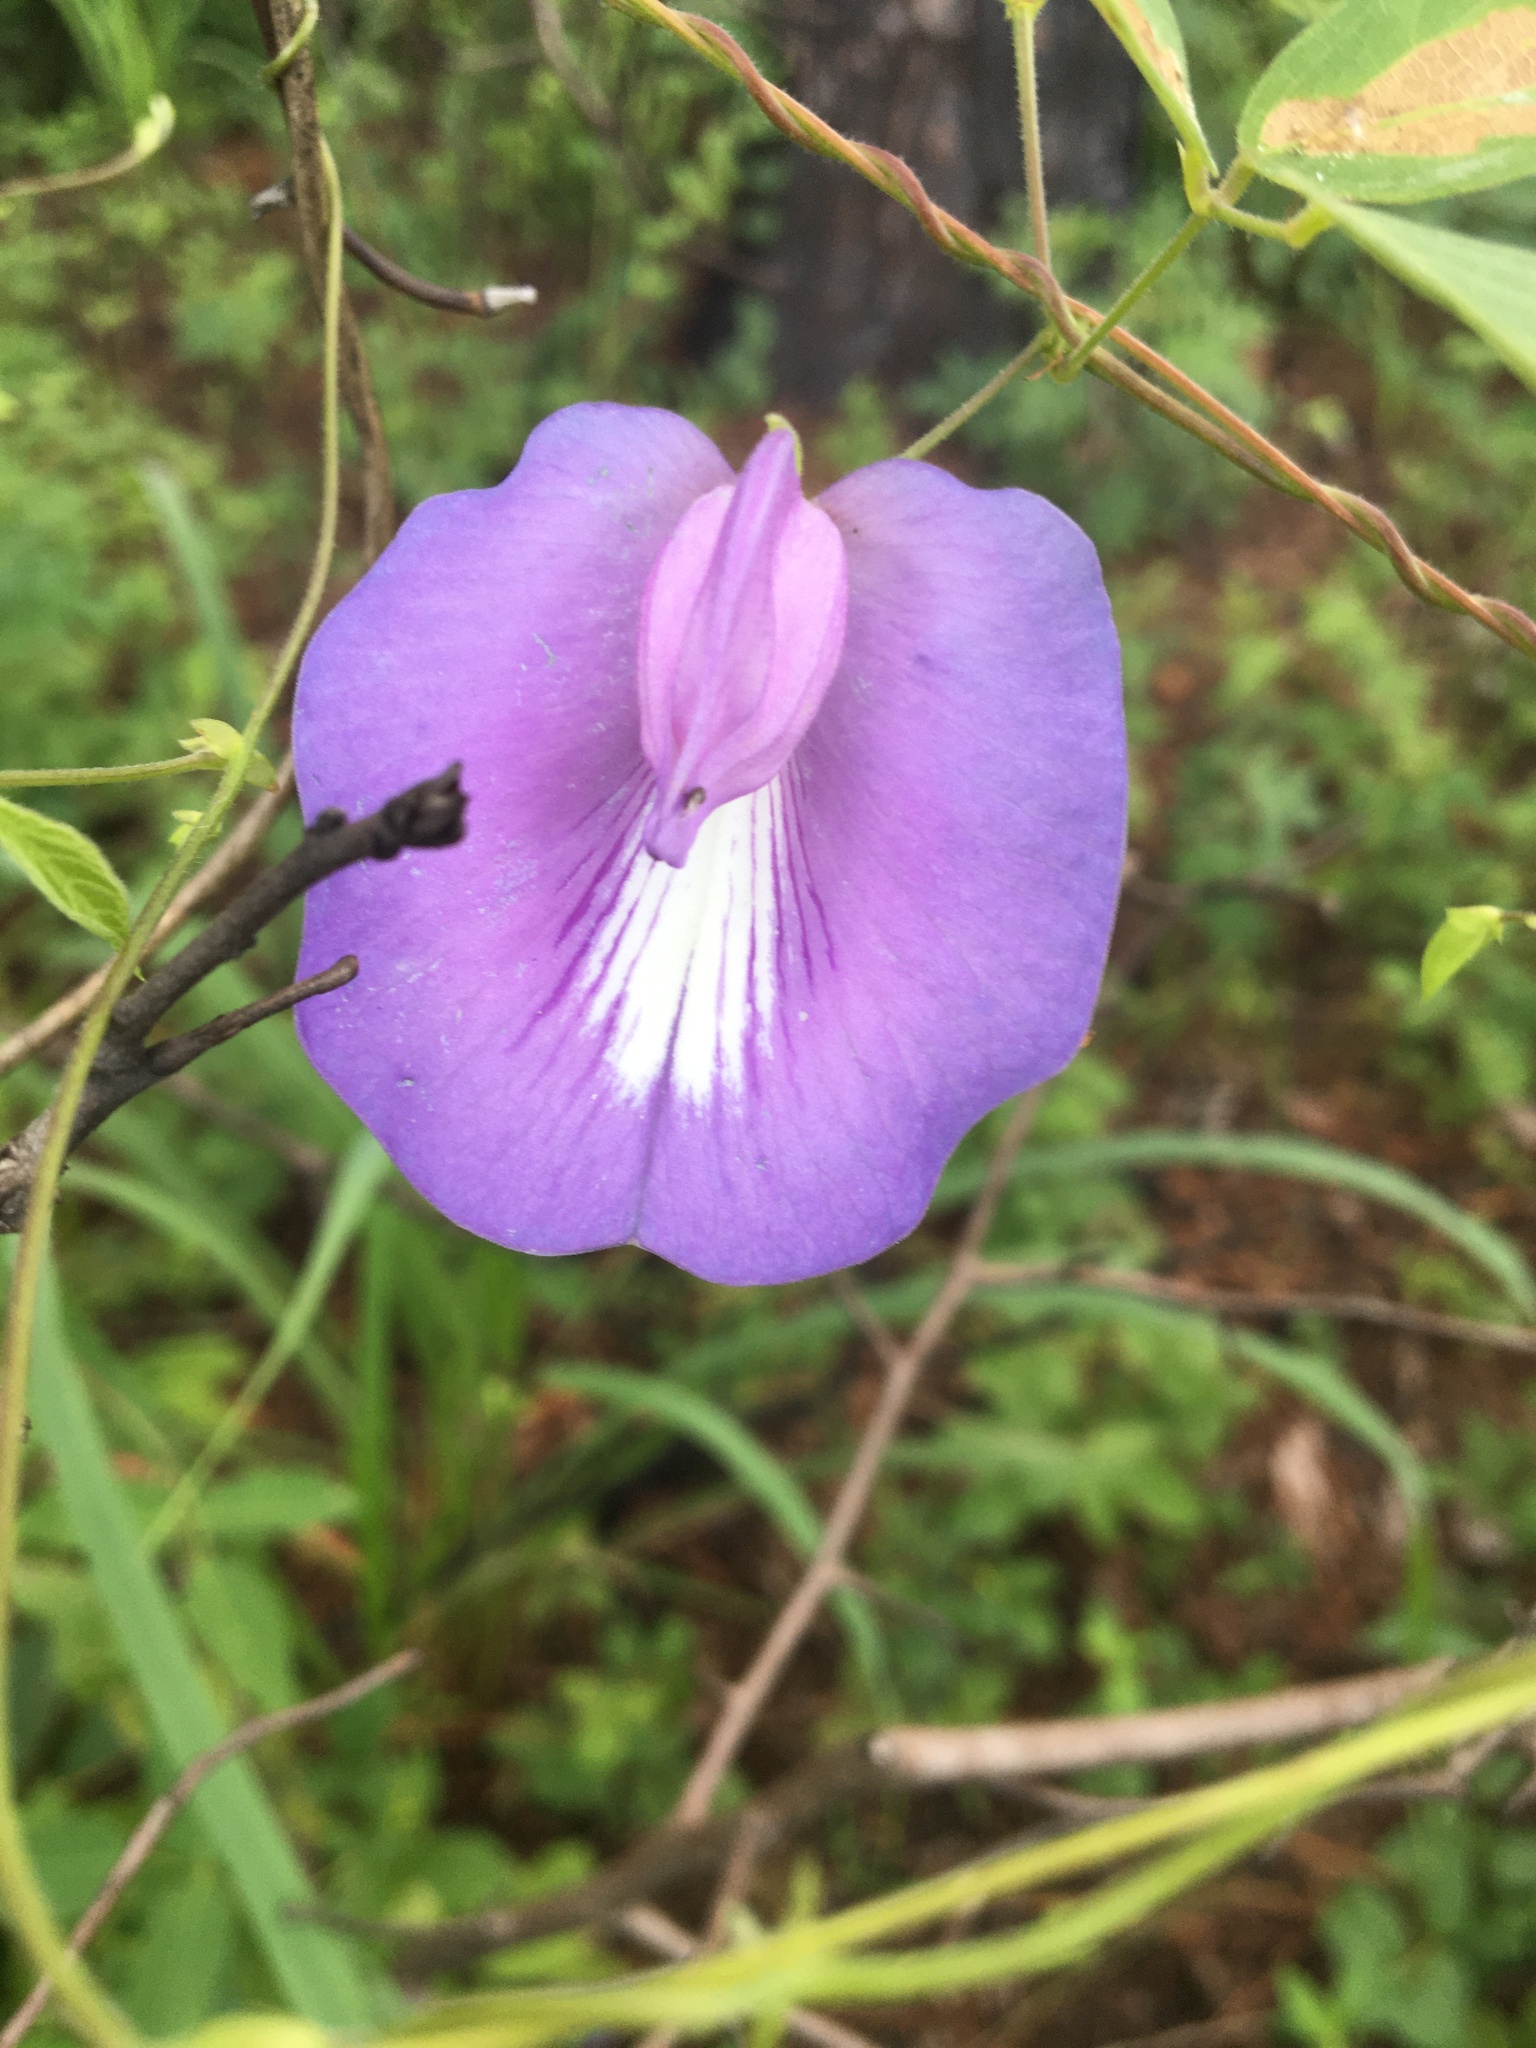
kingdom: Plantae
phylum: Tracheophyta
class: Magnoliopsida
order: Fabales
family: Fabaceae
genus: Centrosema
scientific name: Centrosema virginianum
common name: Butterfly-pea
